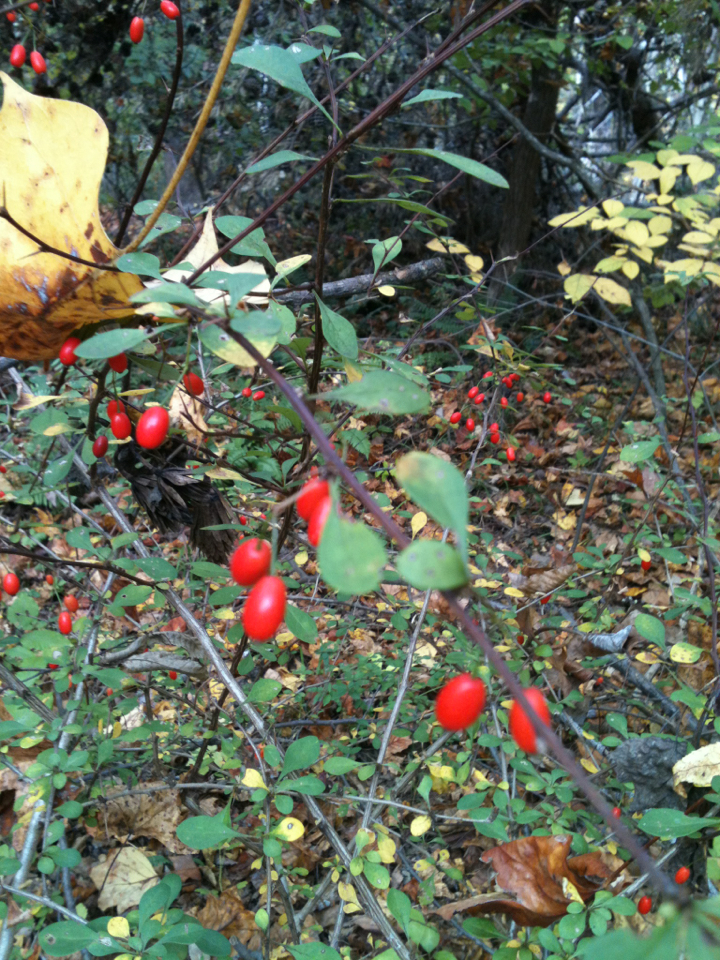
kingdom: Plantae
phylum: Tracheophyta
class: Magnoliopsida
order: Ranunculales
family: Berberidaceae
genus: Berberis
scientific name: Berberis thunbergii
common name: Japanese barberry
